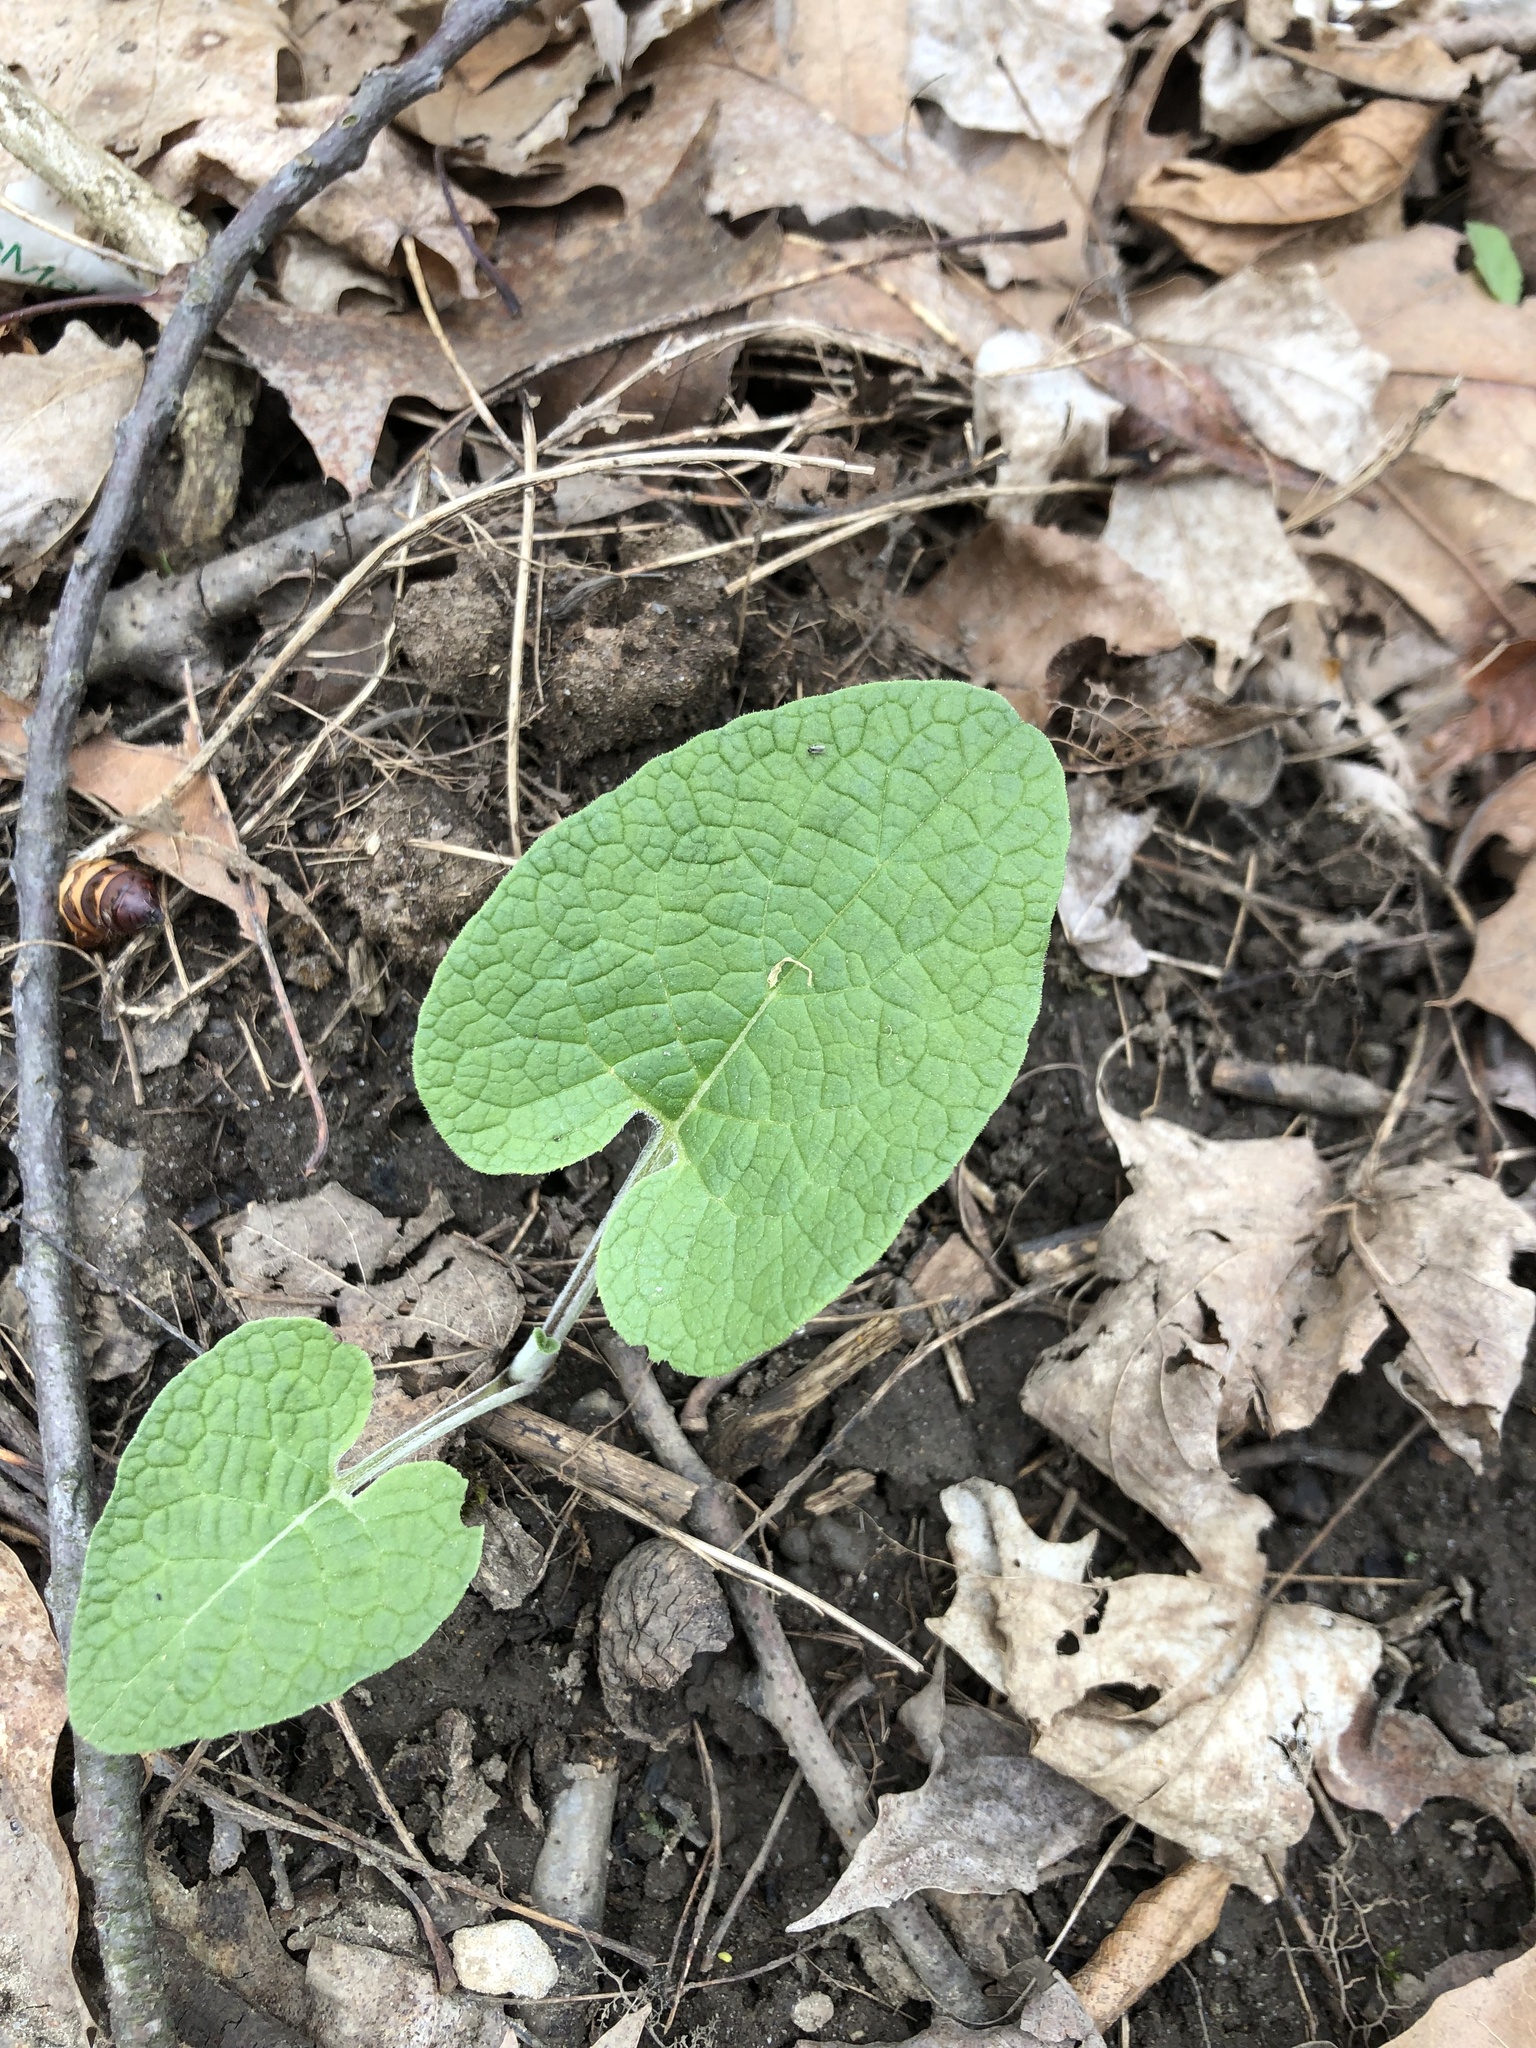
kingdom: Plantae
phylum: Tracheophyta
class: Magnoliopsida
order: Asterales
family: Asteraceae
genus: Arctium
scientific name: Arctium
